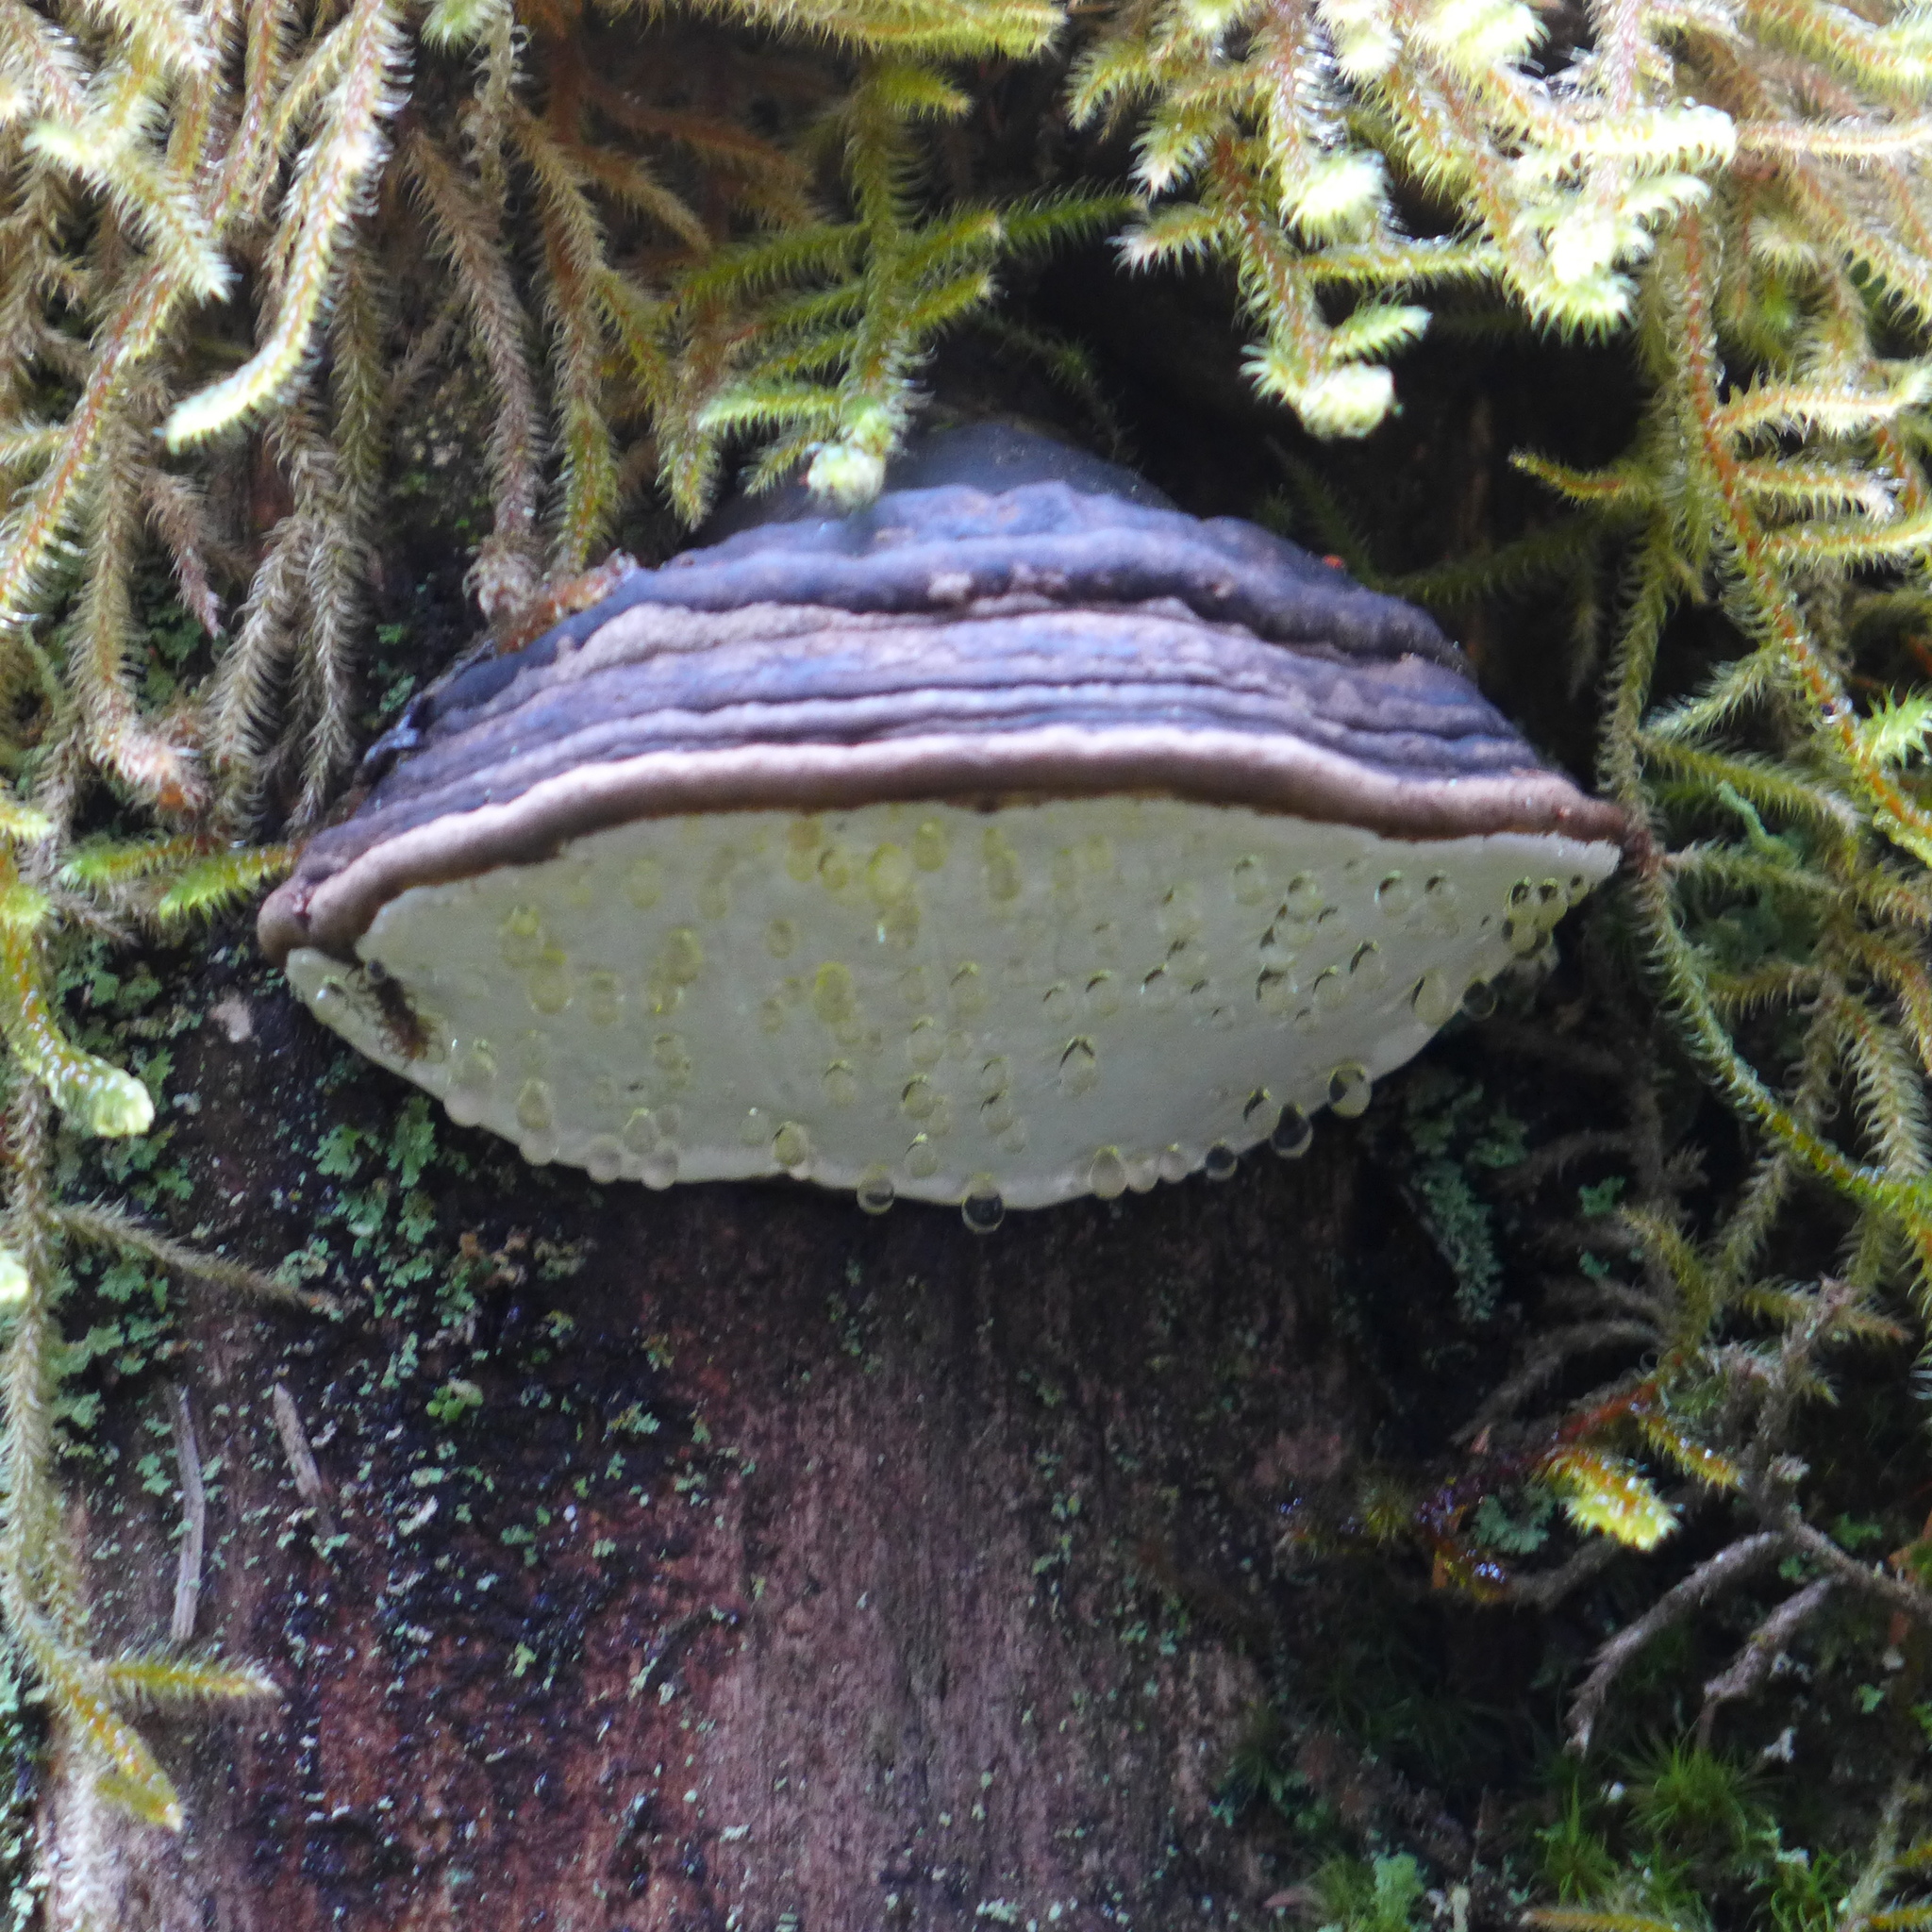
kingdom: Fungi
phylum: Basidiomycota
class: Agaricomycetes
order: Polyporales
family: Polyporaceae
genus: Ganoderma
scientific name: Ganoderma applanatum
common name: Artist's bracket
